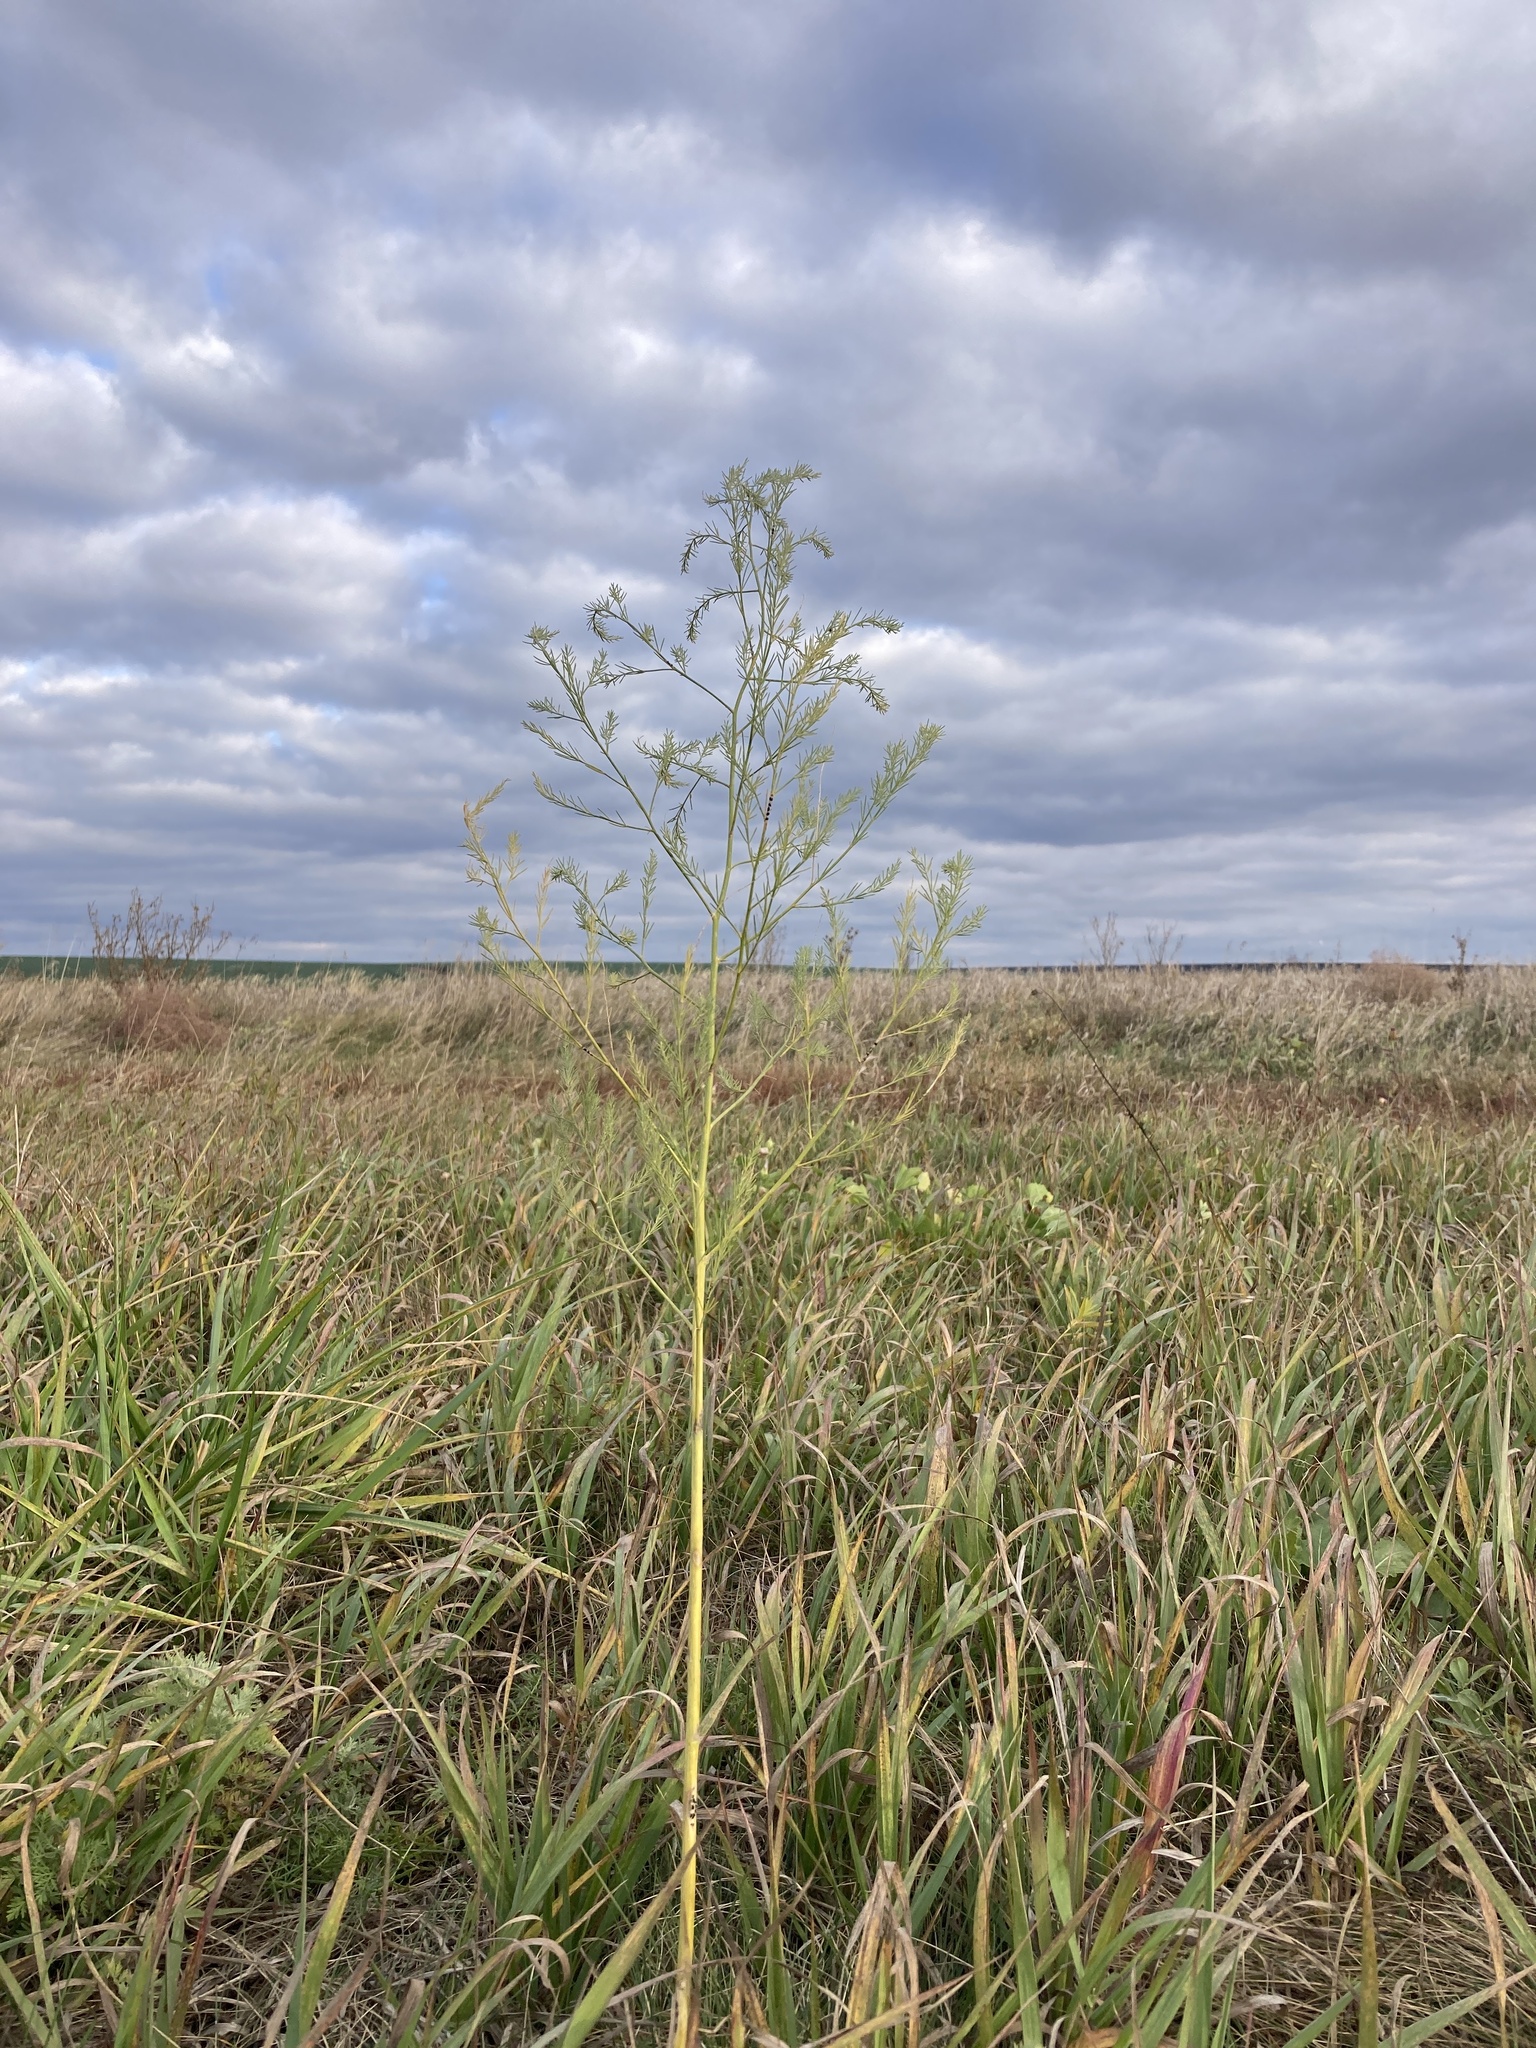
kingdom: Plantae
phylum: Tracheophyta
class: Liliopsida
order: Asparagales
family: Asparagaceae
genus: Asparagus
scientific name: Asparagus officinalis
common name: Garden asparagus
